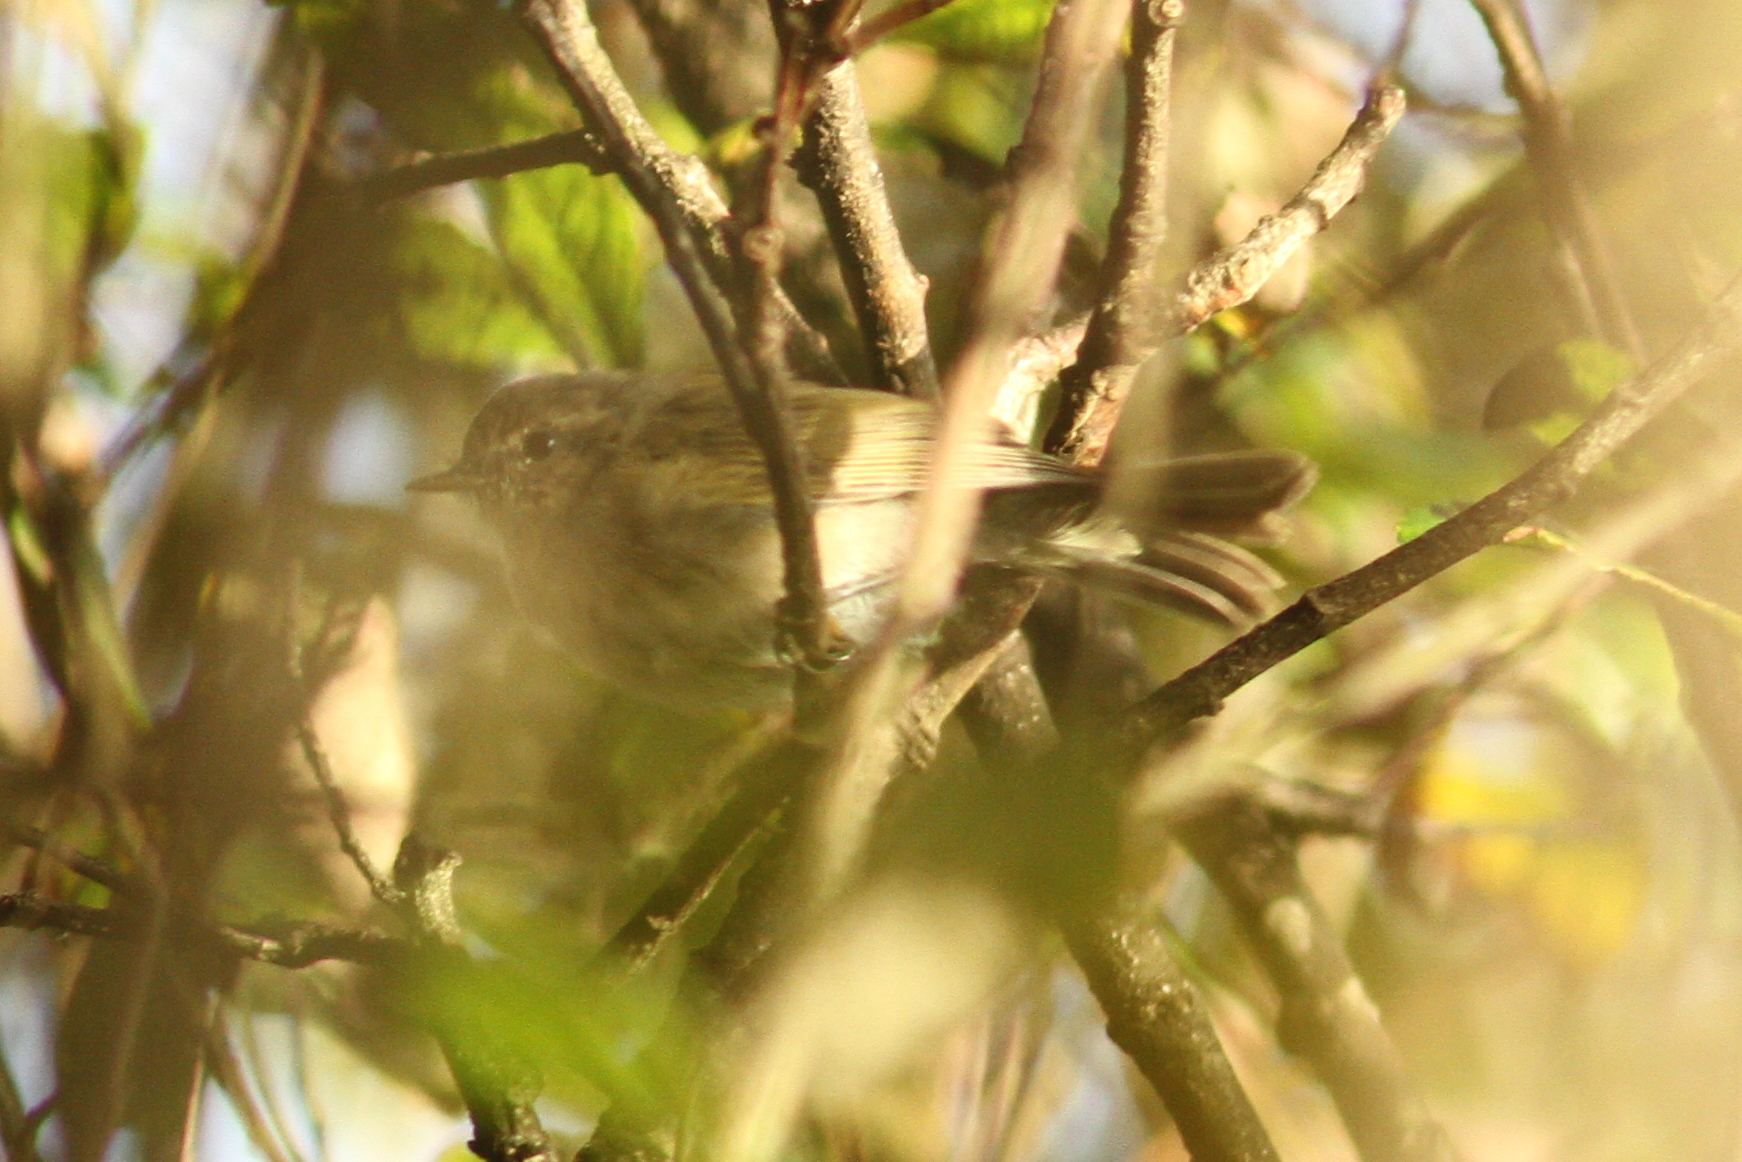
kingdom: Animalia
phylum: Chordata
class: Aves
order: Passeriformes
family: Phylloscopidae
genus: Phylloscopus
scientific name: Phylloscopus collybita
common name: Common chiffchaff
